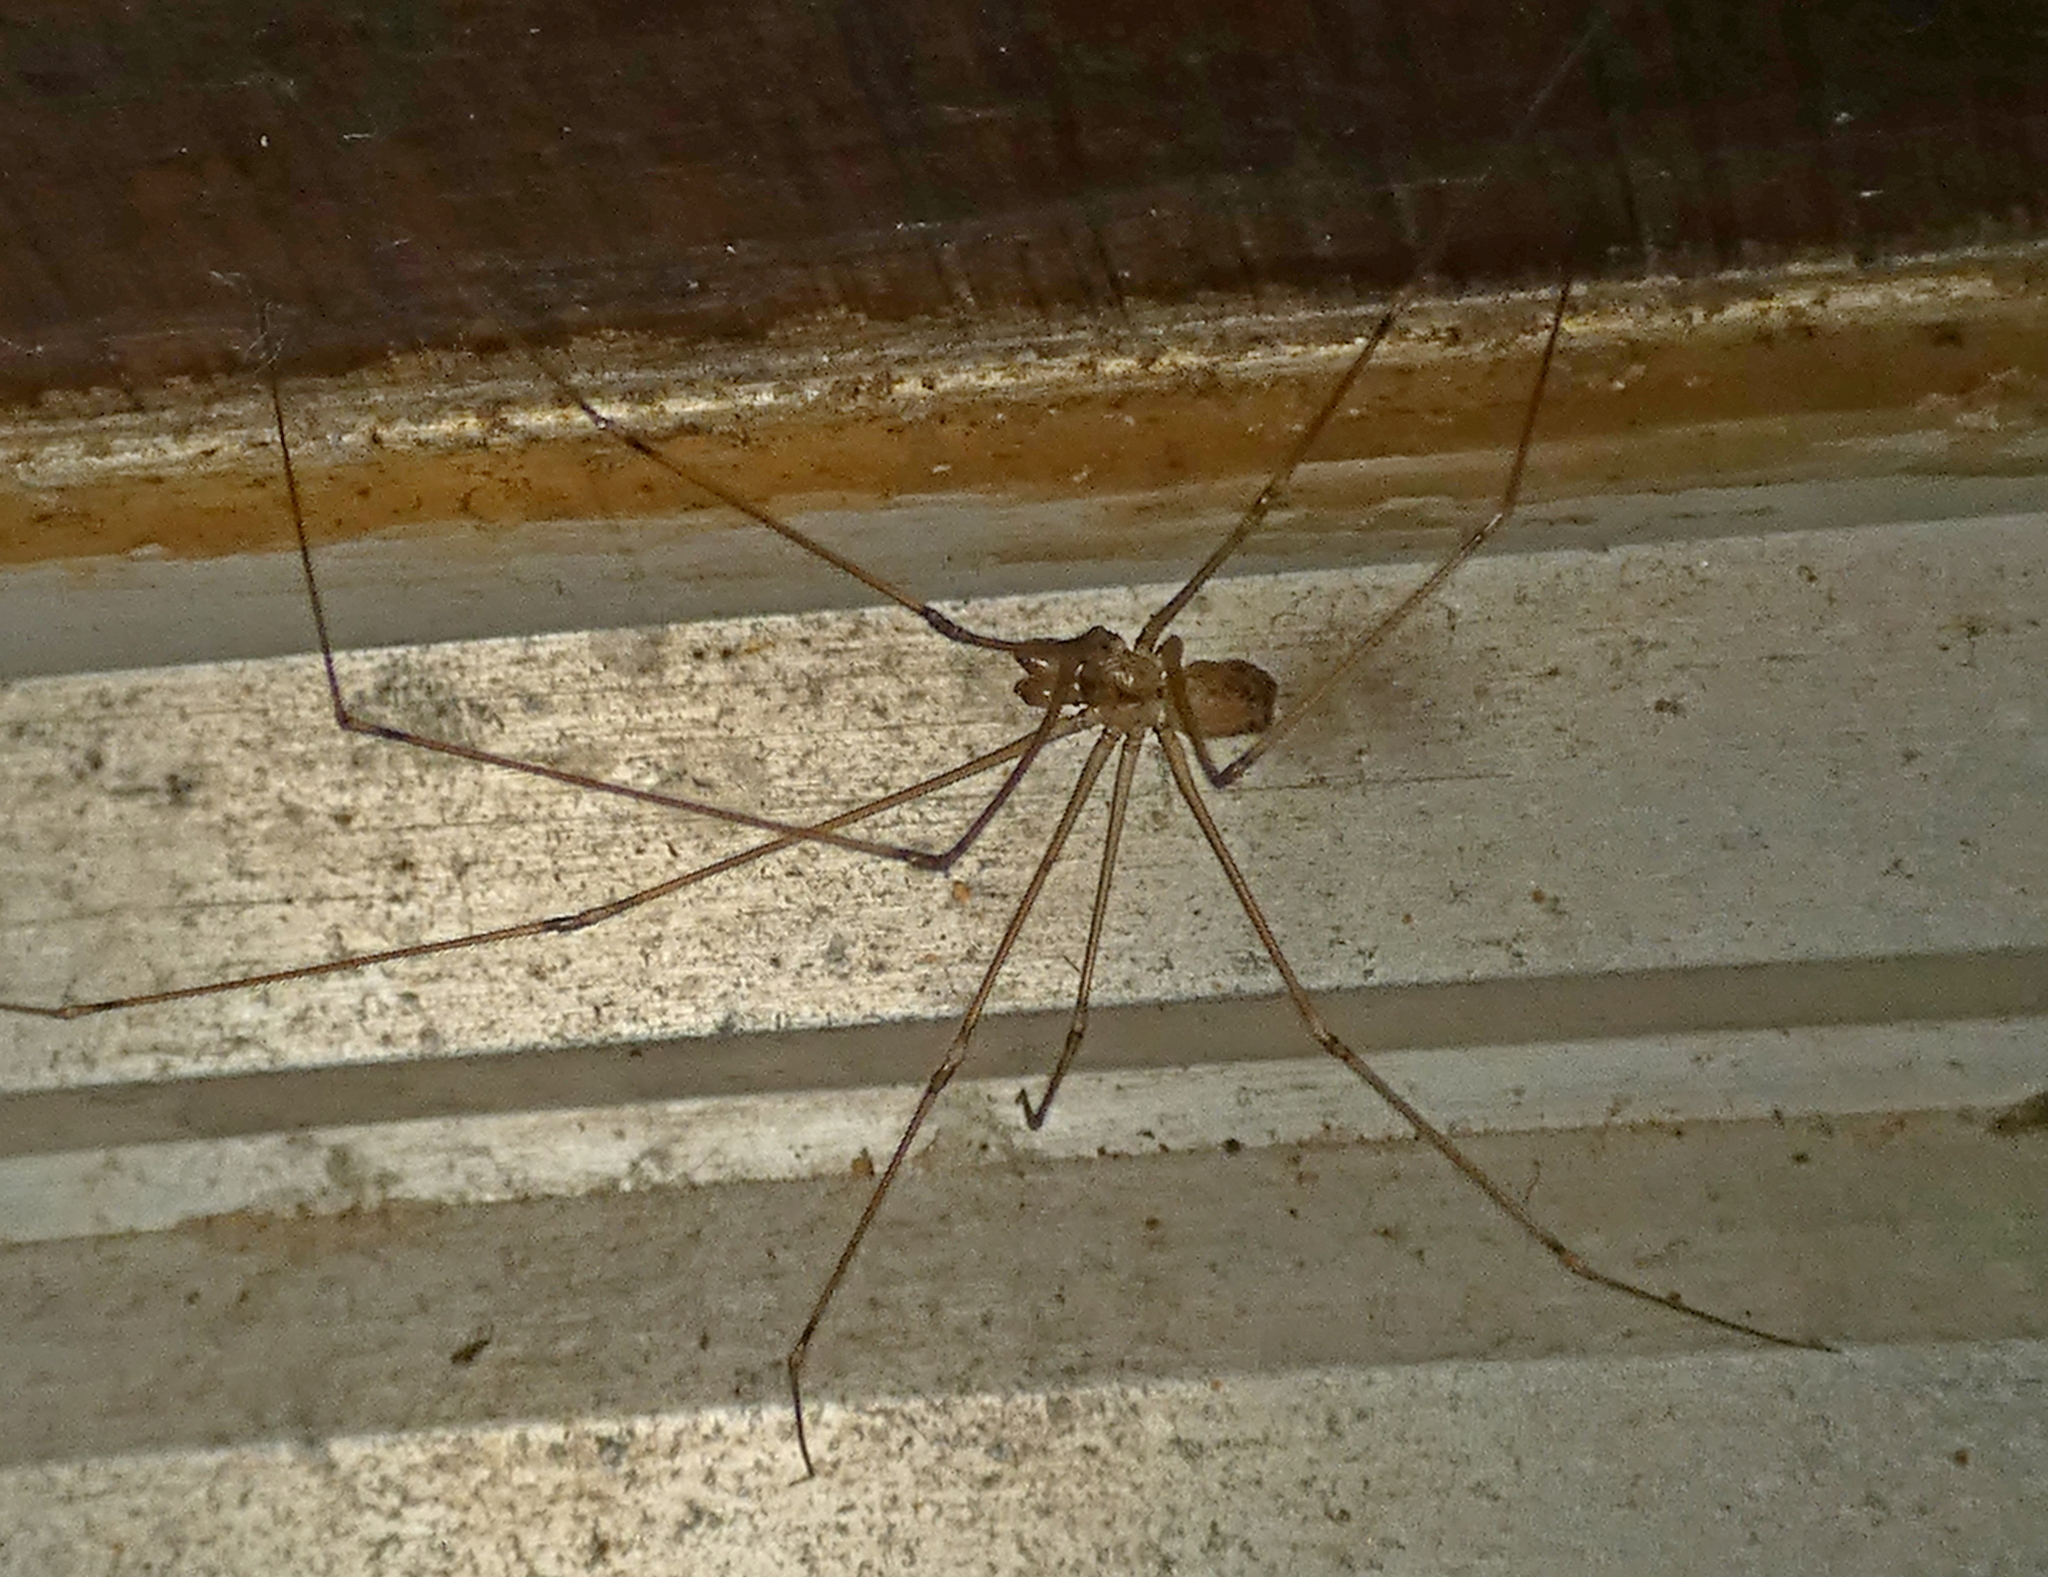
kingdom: Animalia
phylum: Arthropoda
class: Arachnida
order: Araneae
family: Pholcidae
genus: Physocyclus
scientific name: Physocyclus globosus
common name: Cellar spiders
